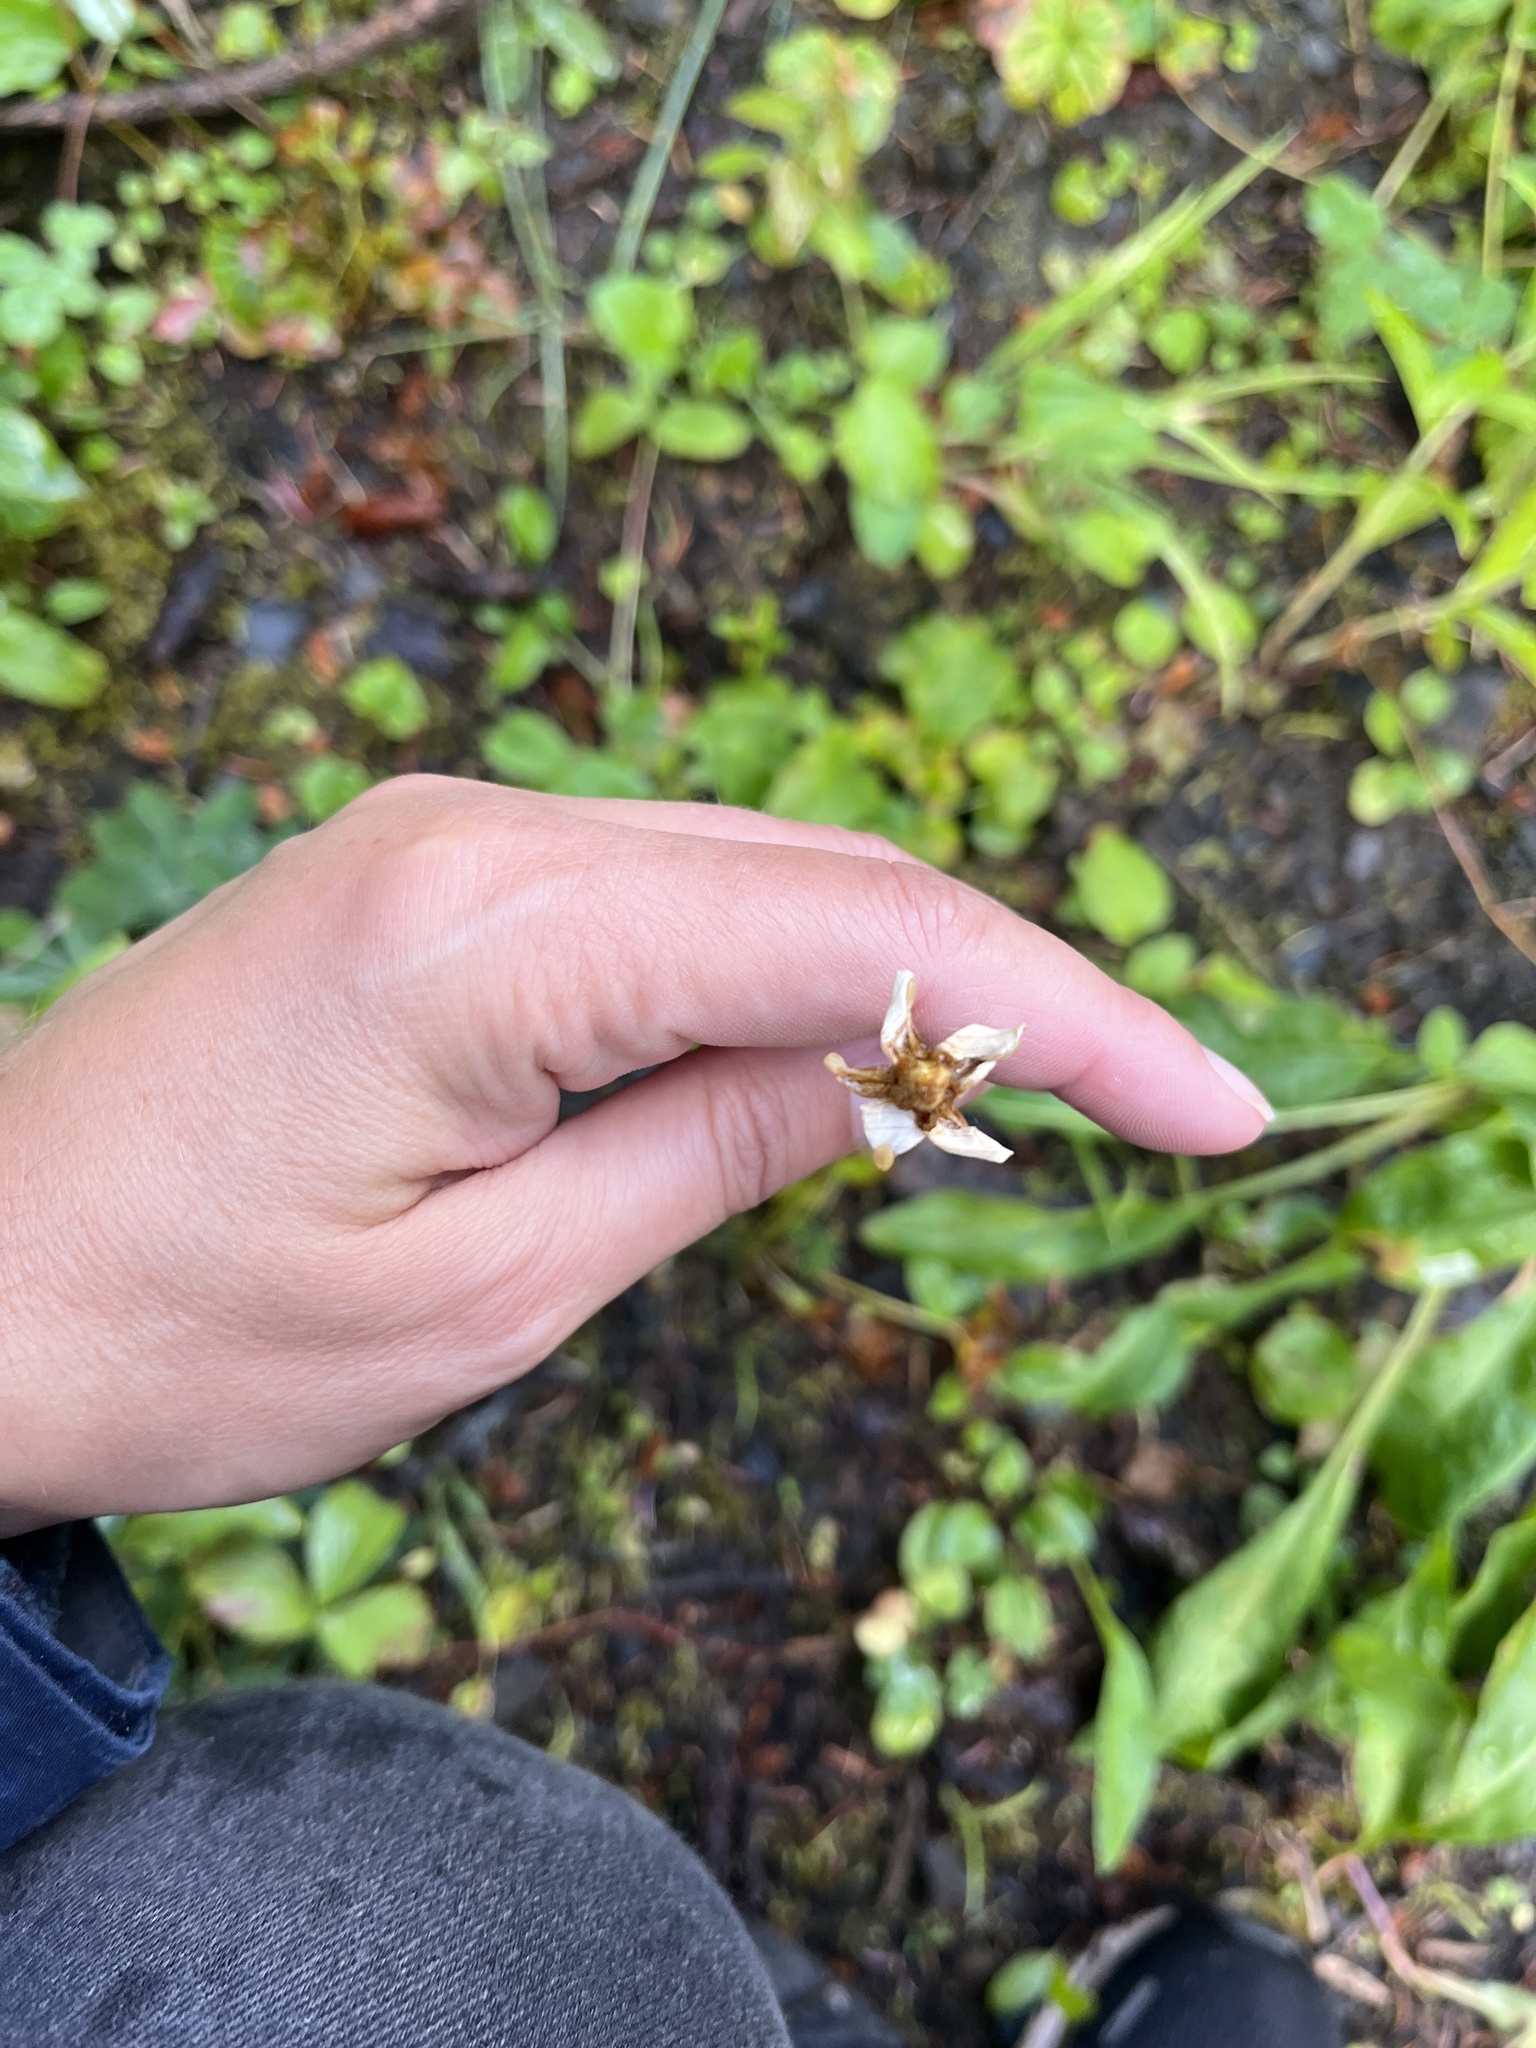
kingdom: Plantae
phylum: Tracheophyta
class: Magnoliopsida
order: Celastrales
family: Parnassiaceae
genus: Parnassia
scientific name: Parnassia fimbriata
